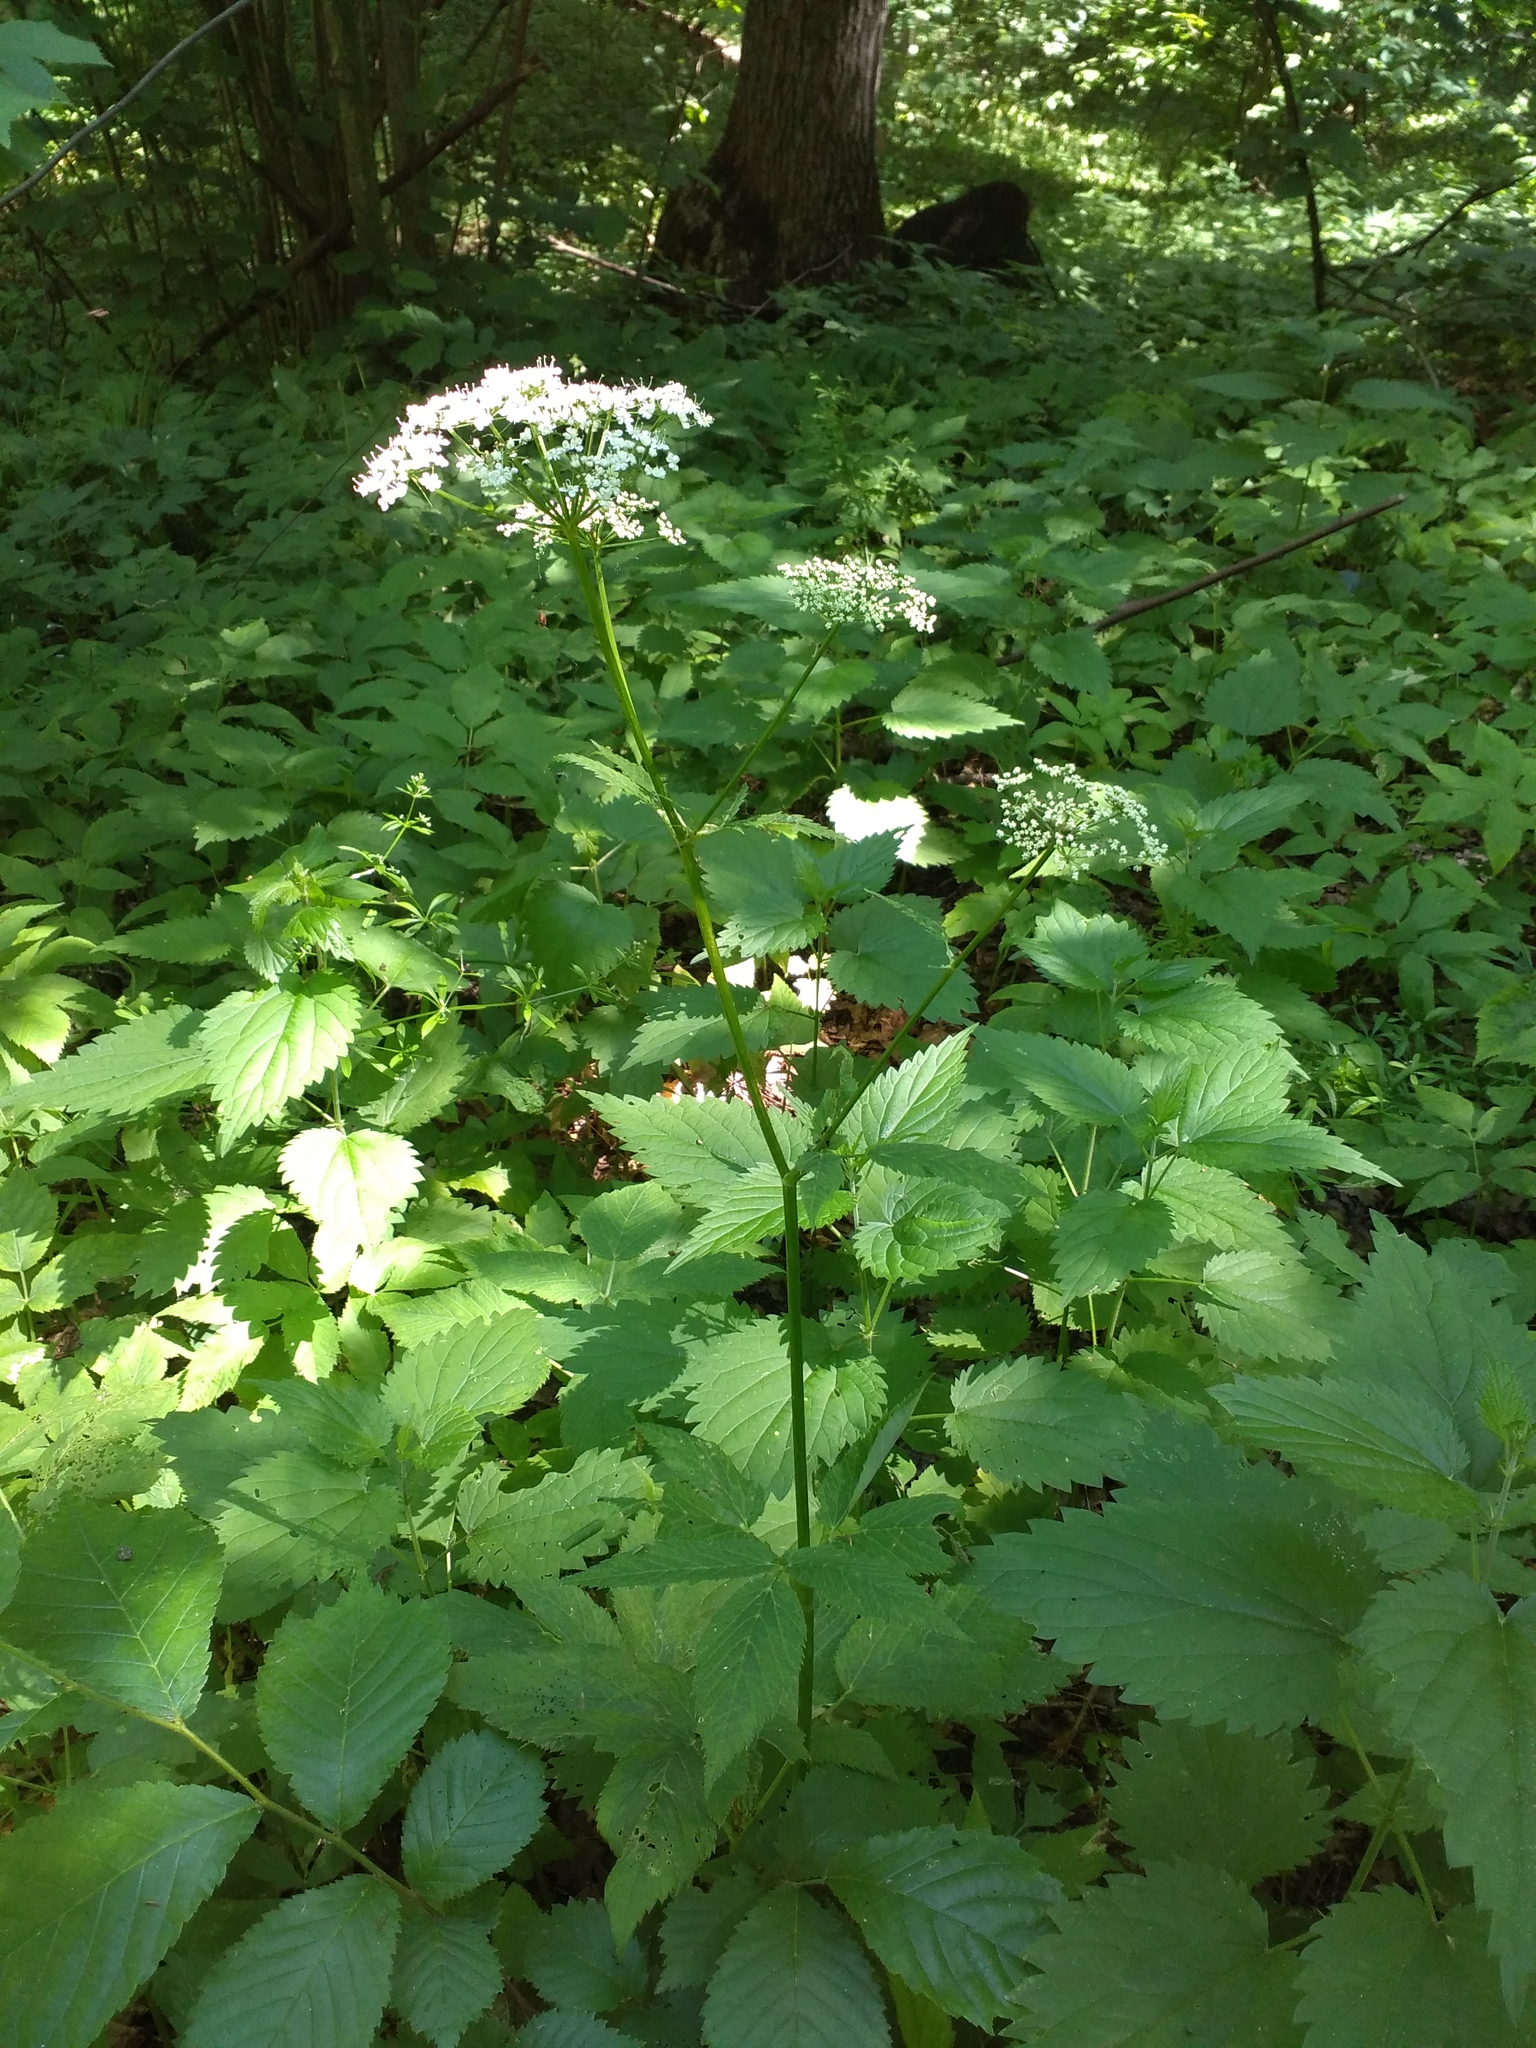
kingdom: Plantae
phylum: Tracheophyta
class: Magnoliopsida
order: Apiales
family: Apiaceae
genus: Aegopodium
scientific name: Aegopodium podagraria
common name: Ground-elder
